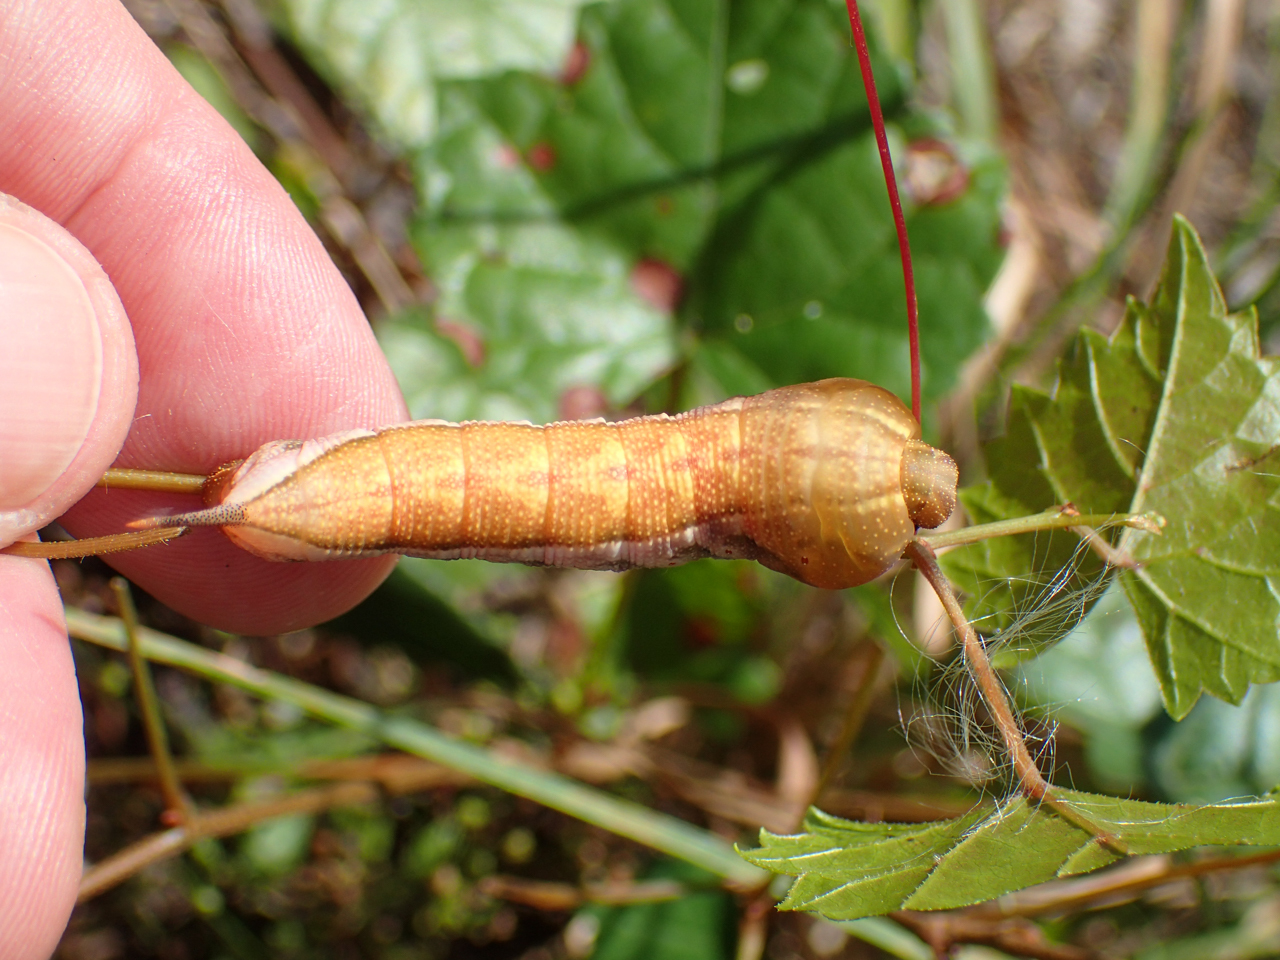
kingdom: Animalia
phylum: Arthropoda
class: Insecta
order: Lepidoptera
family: Sphingidae
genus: Darapsa
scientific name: Darapsa myron
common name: Hog sphinx
